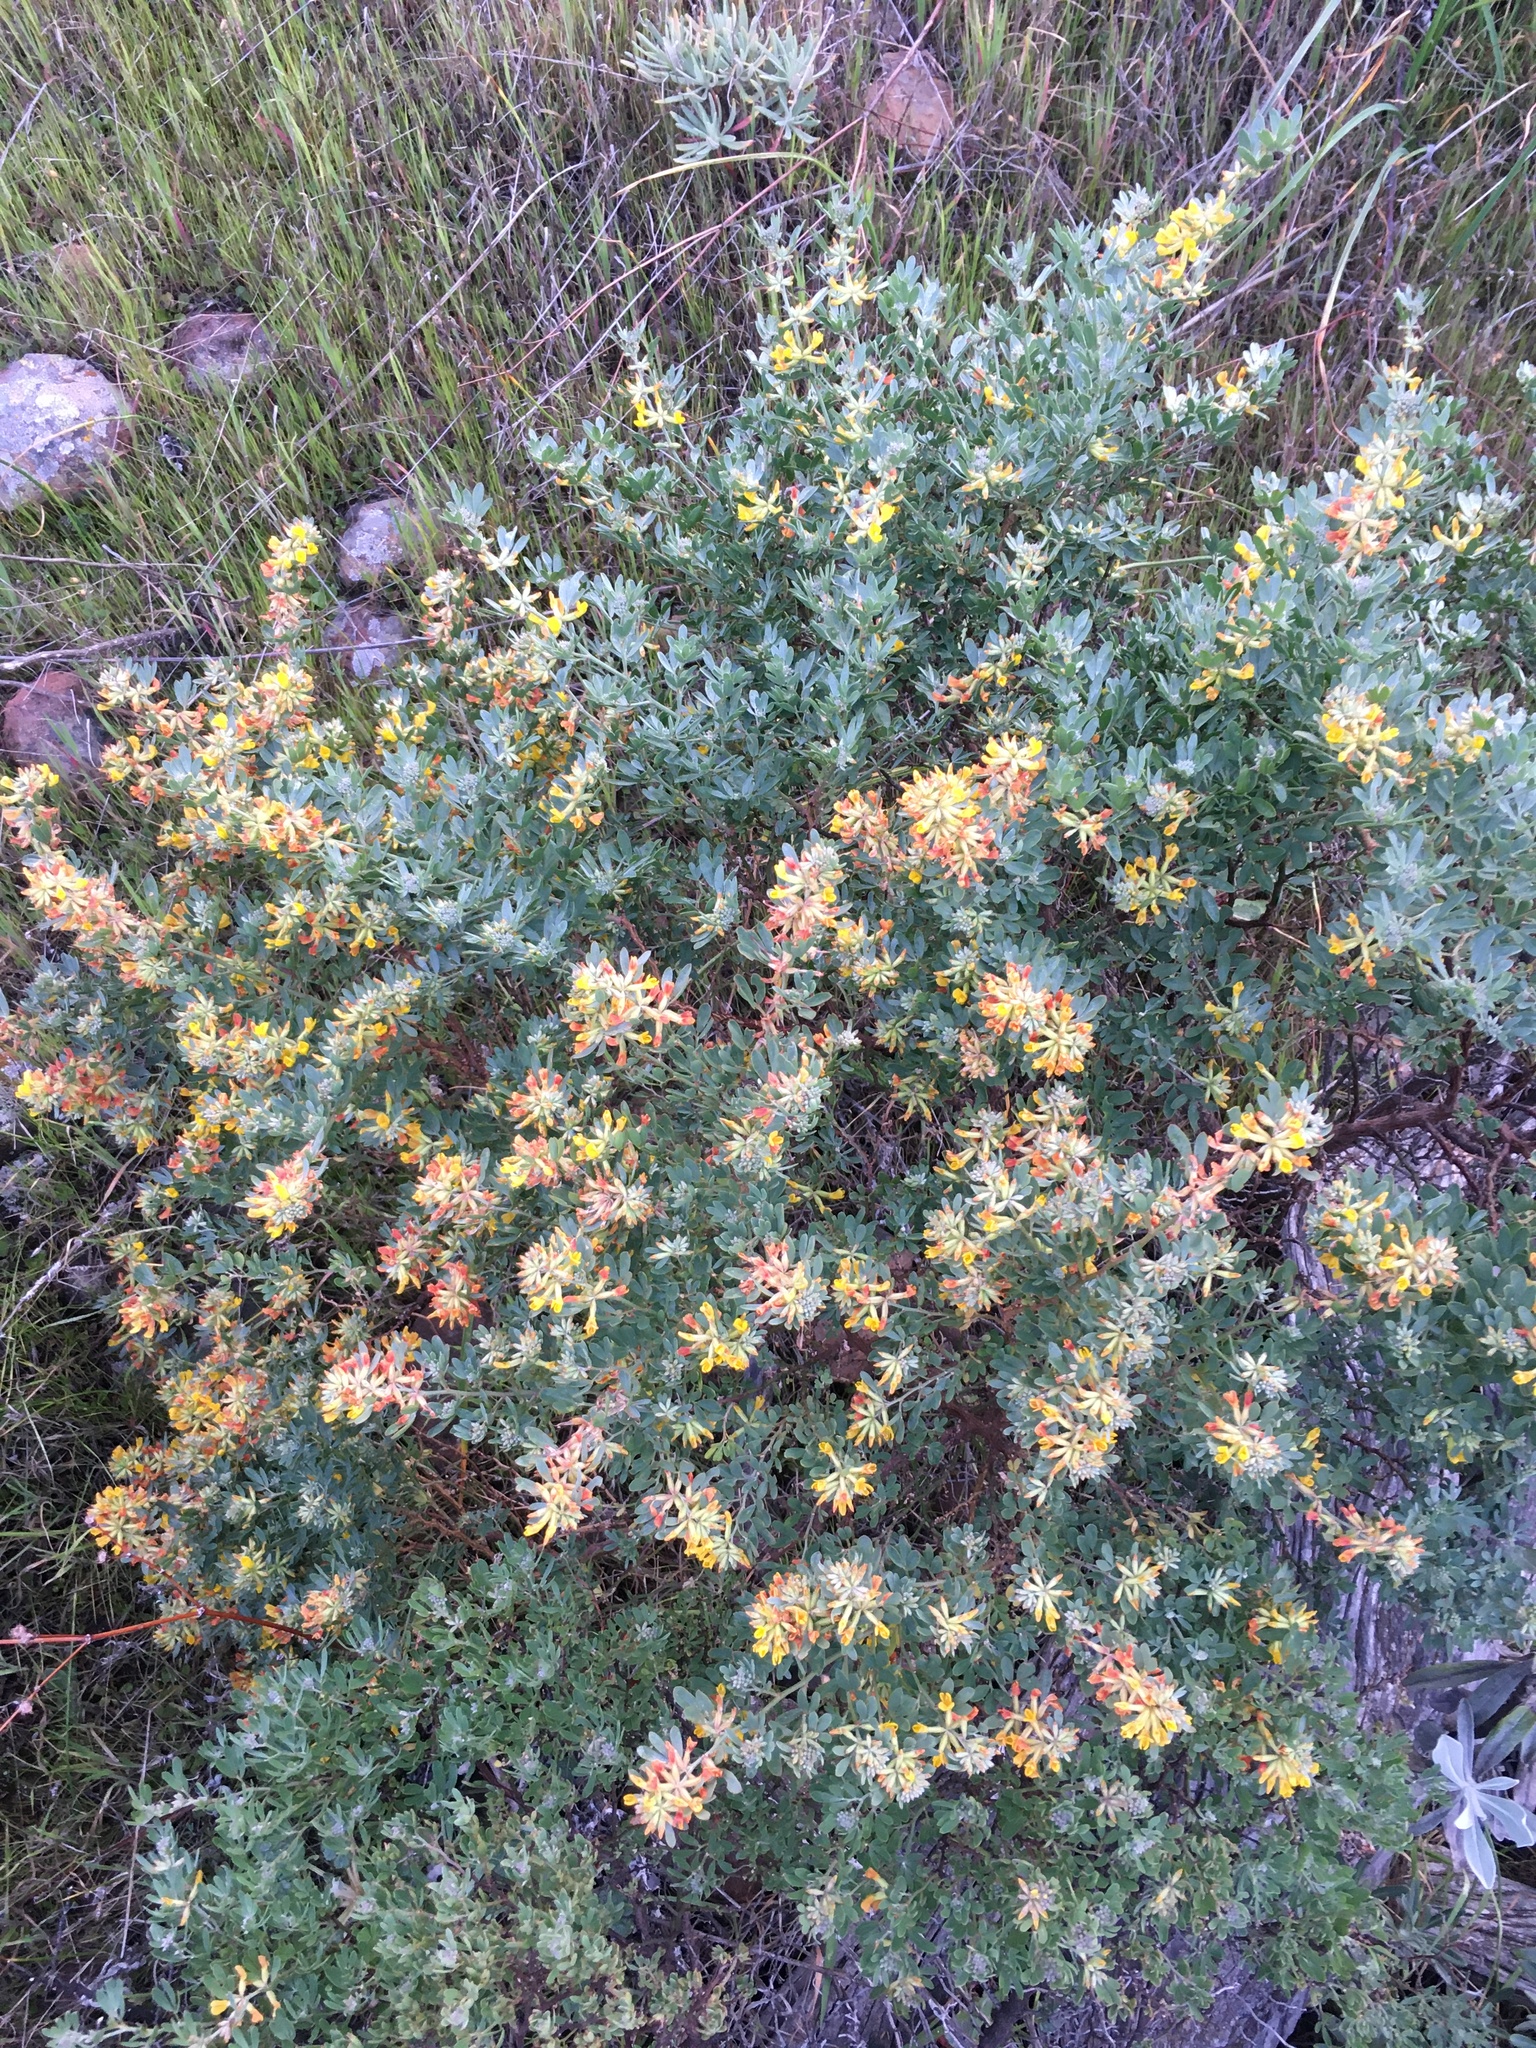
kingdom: Plantae
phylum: Tracheophyta
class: Magnoliopsida
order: Fabales
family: Fabaceae
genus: Acmispon
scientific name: Acmispon dendroideus
